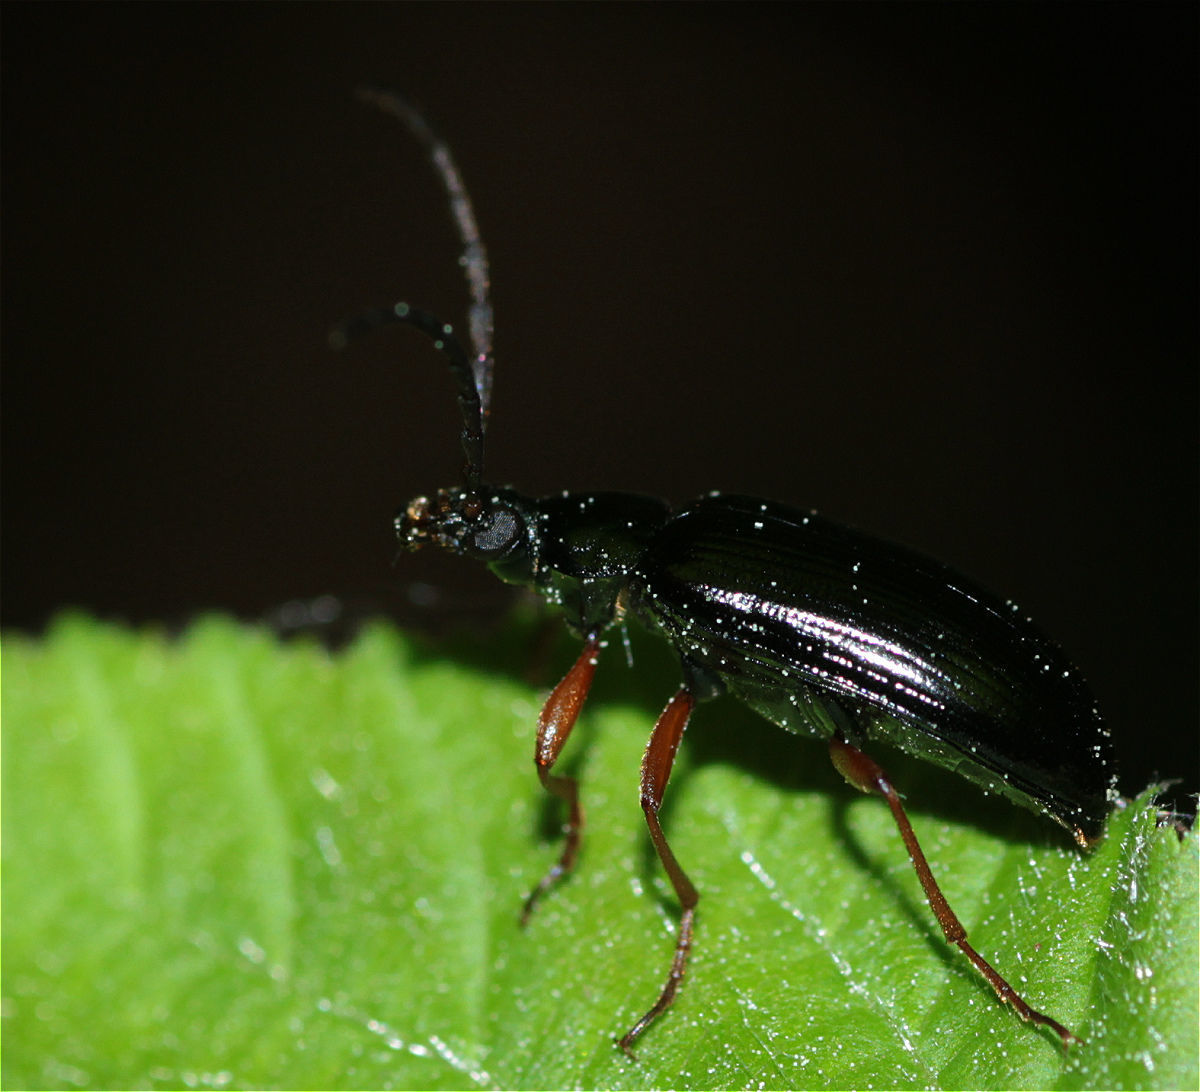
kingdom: Animalia
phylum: Arthropoda
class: Insecta
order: Coleoptera
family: Tenebrionidae
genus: Gonodera
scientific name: Gonodera luperus
